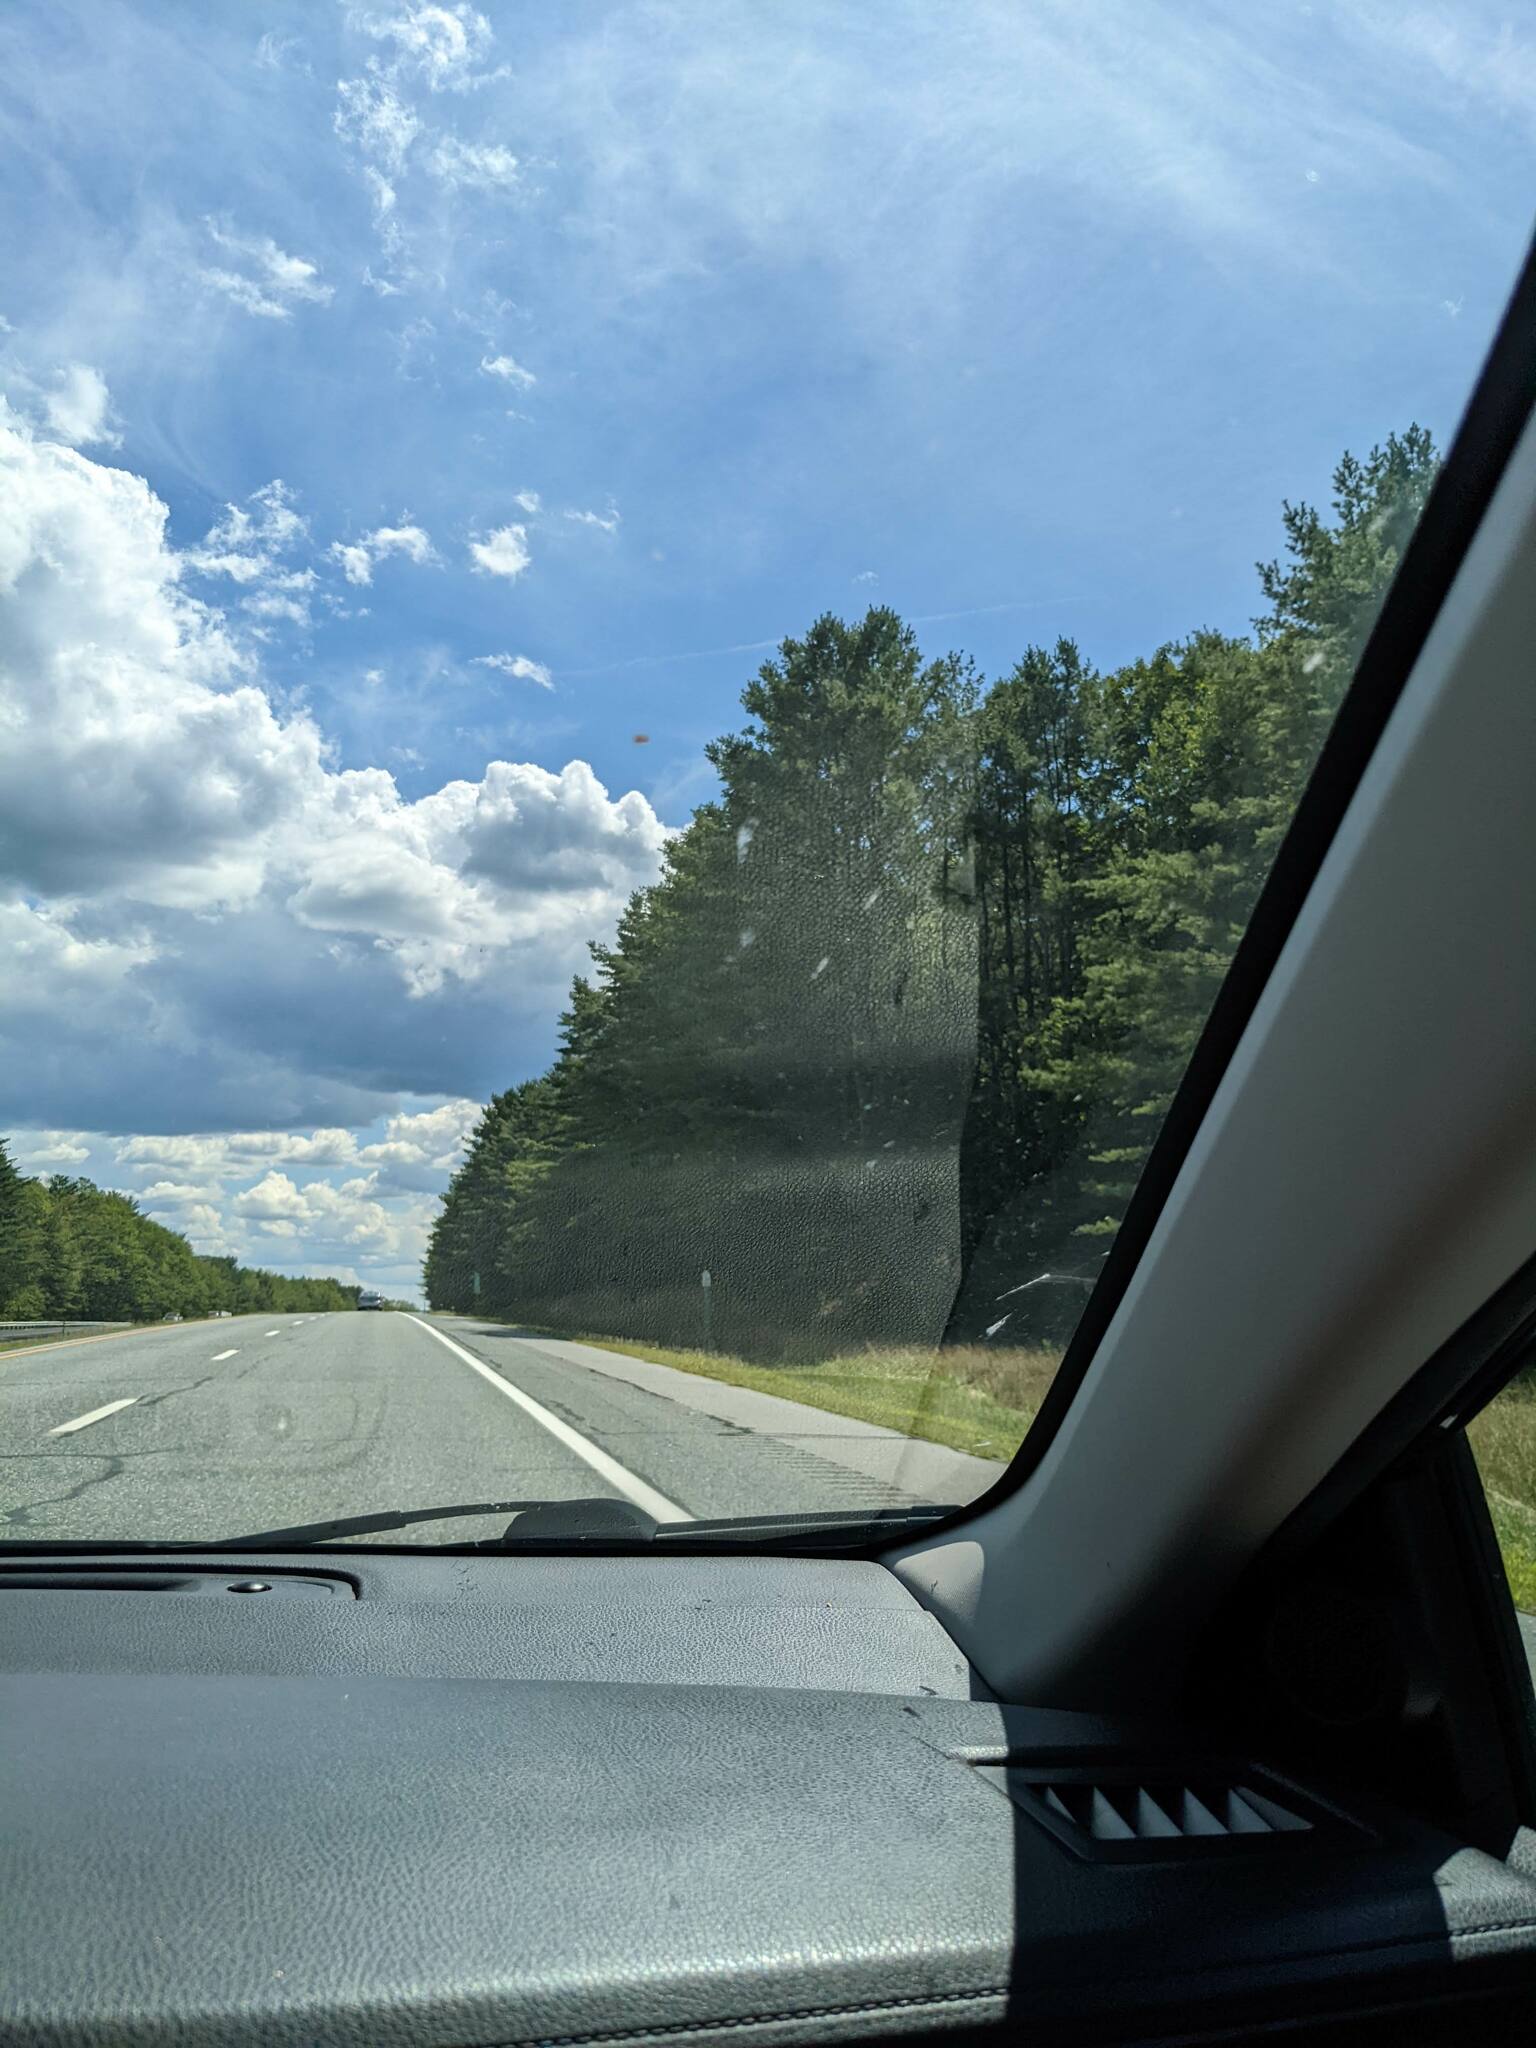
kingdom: Plantae
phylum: Tracheophyta
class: Pinopsida
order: Pinales
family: Pinaceae
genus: Pinus
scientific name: Pinus strobus
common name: Weymouth pine
